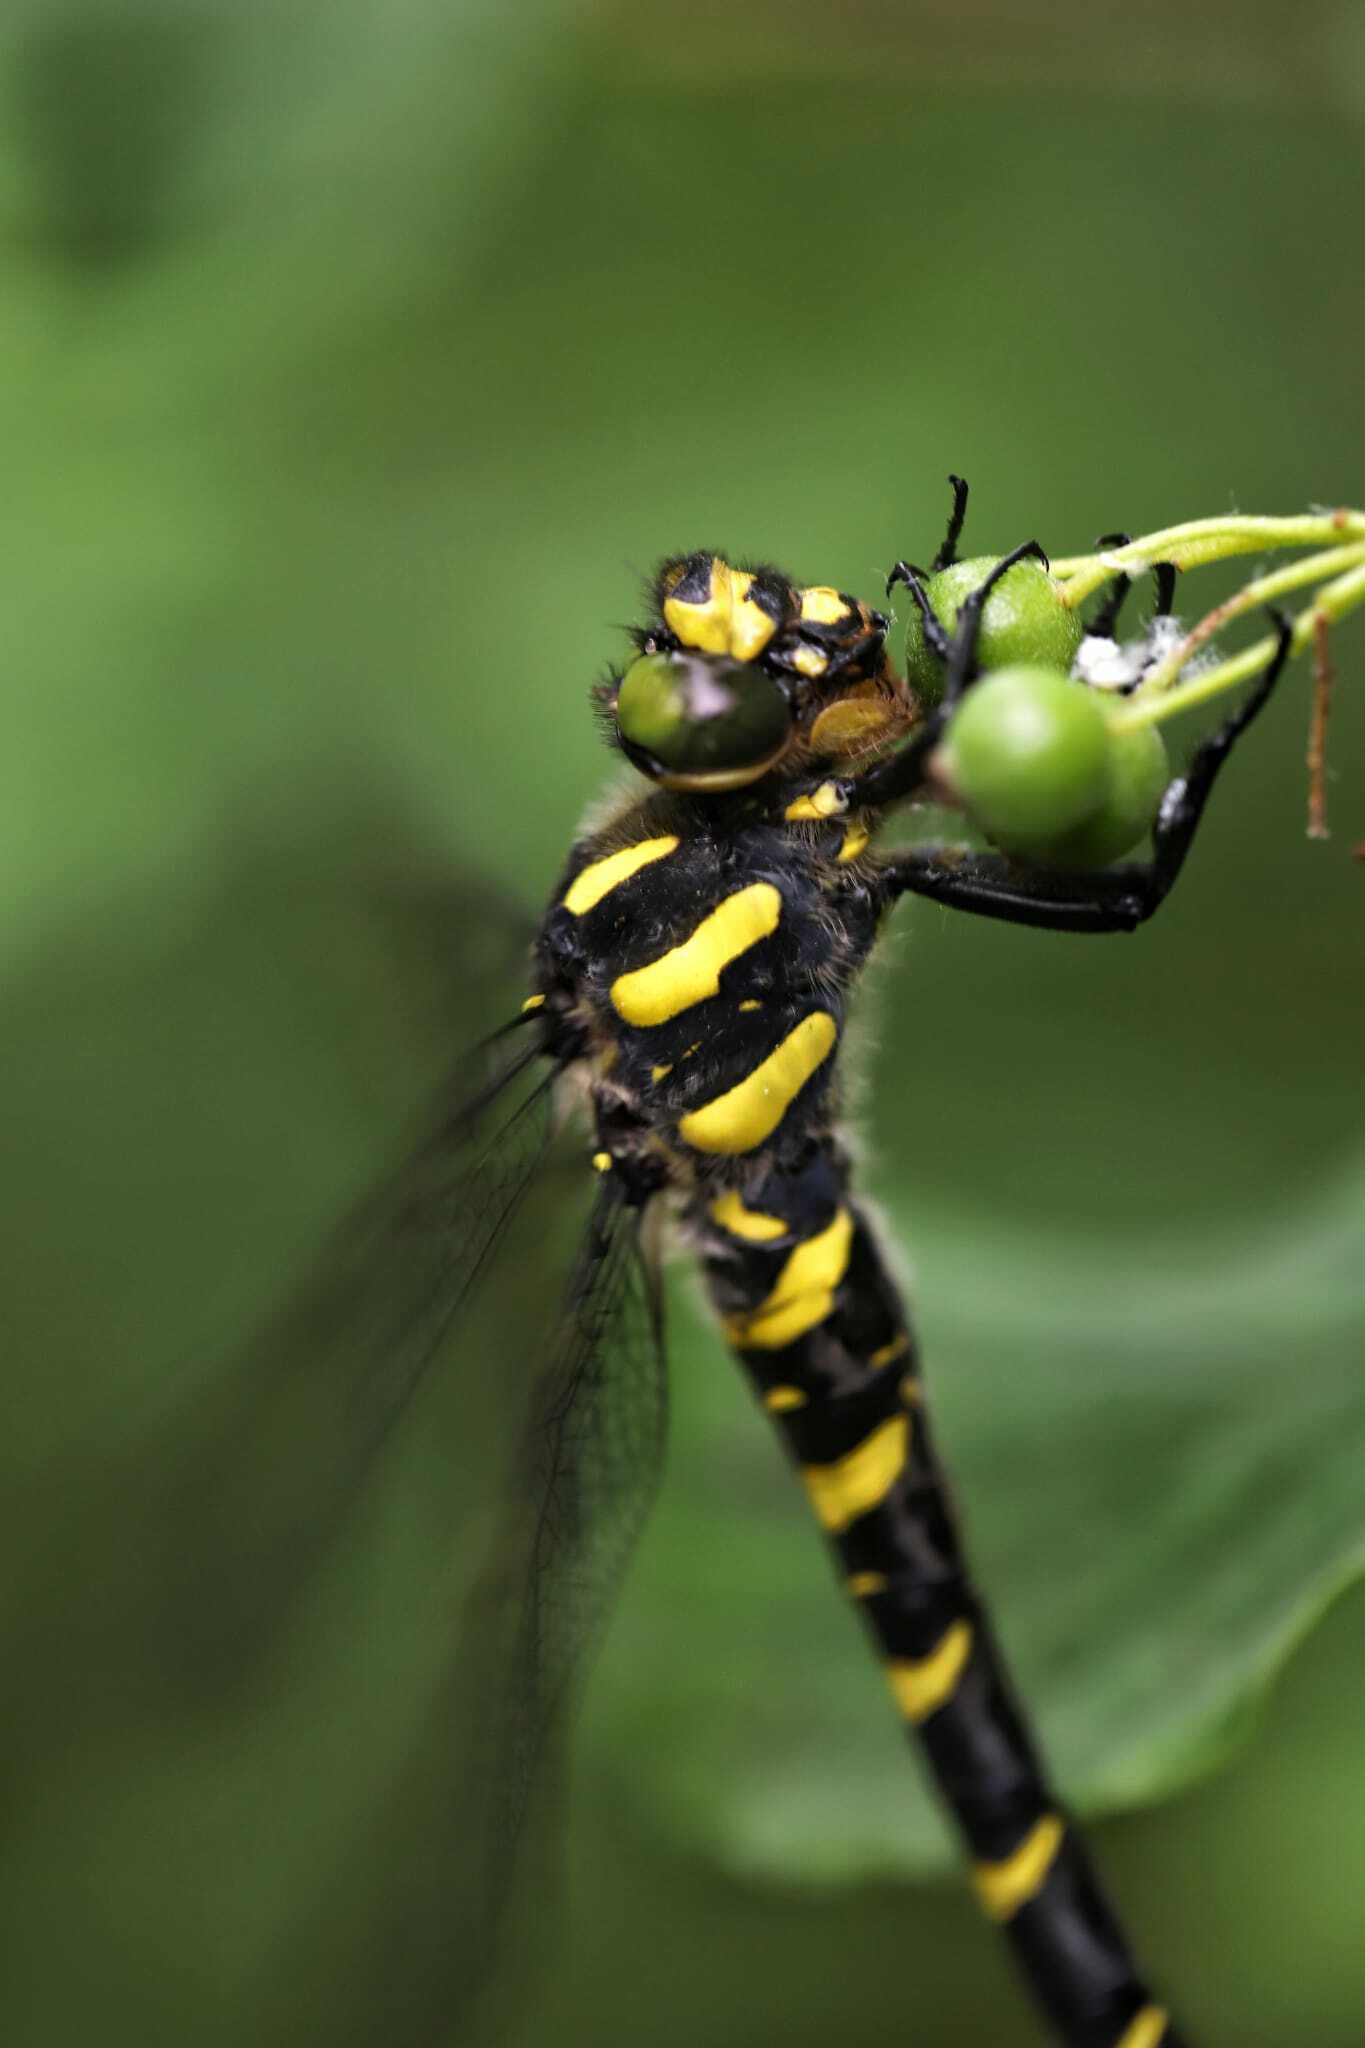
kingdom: Animalia
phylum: Arthropoda
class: Insecta
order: Odonata
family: Cordulegastridae
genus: Cordulegaster
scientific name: Cordulegaster bidentata
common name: Sombre goldenring
